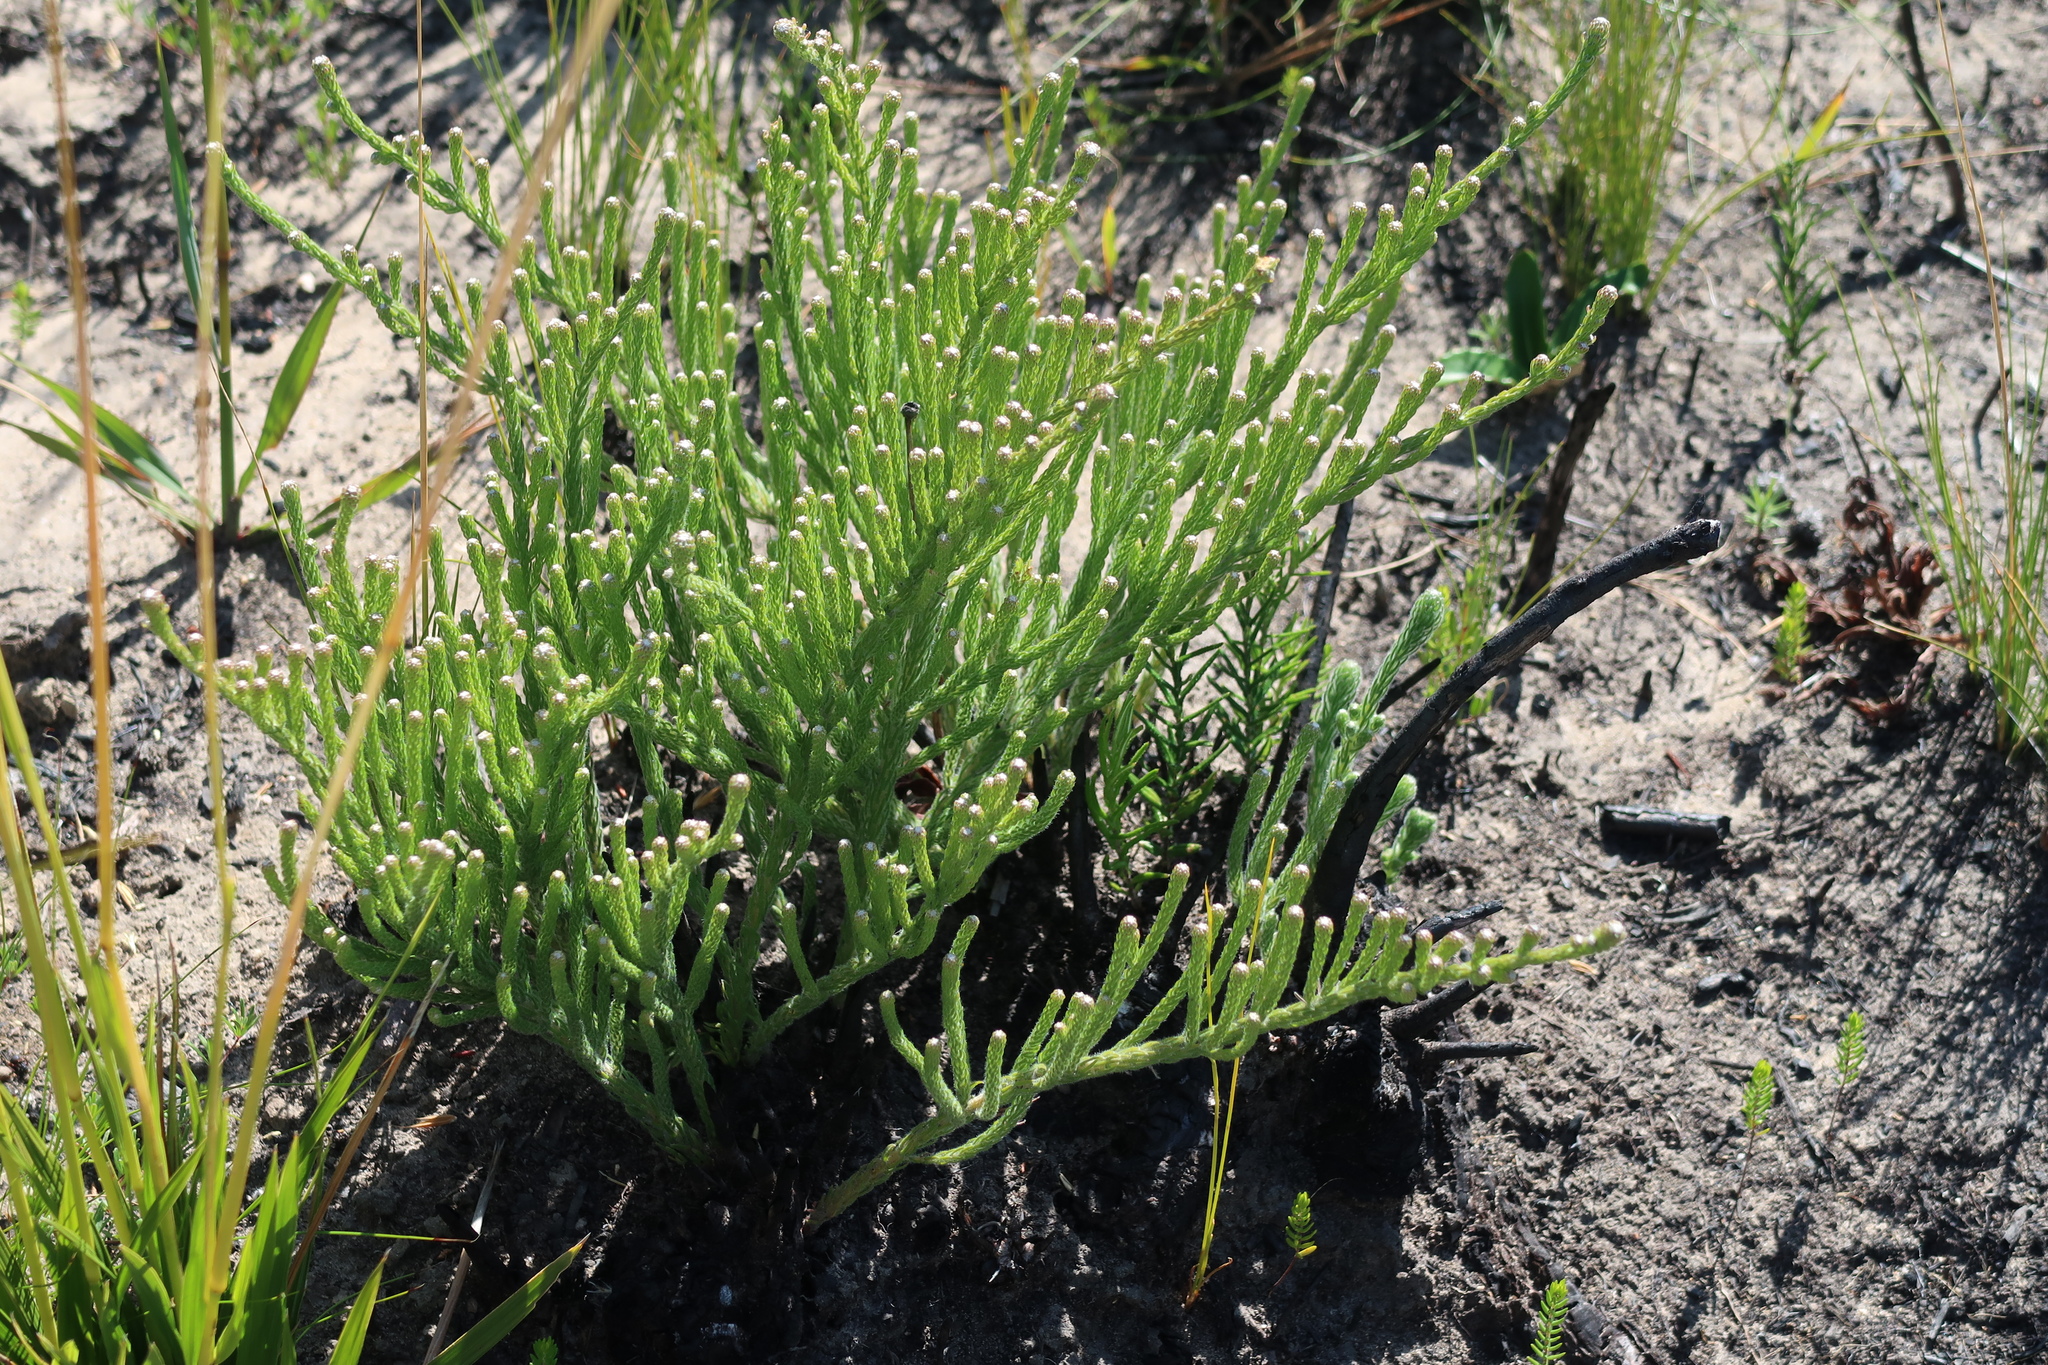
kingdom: Plantae
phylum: Tracheophyta
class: Magnoliopsida
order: Bruniales
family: Bruniaceae
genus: Brunia
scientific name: Brunia noduliflora
